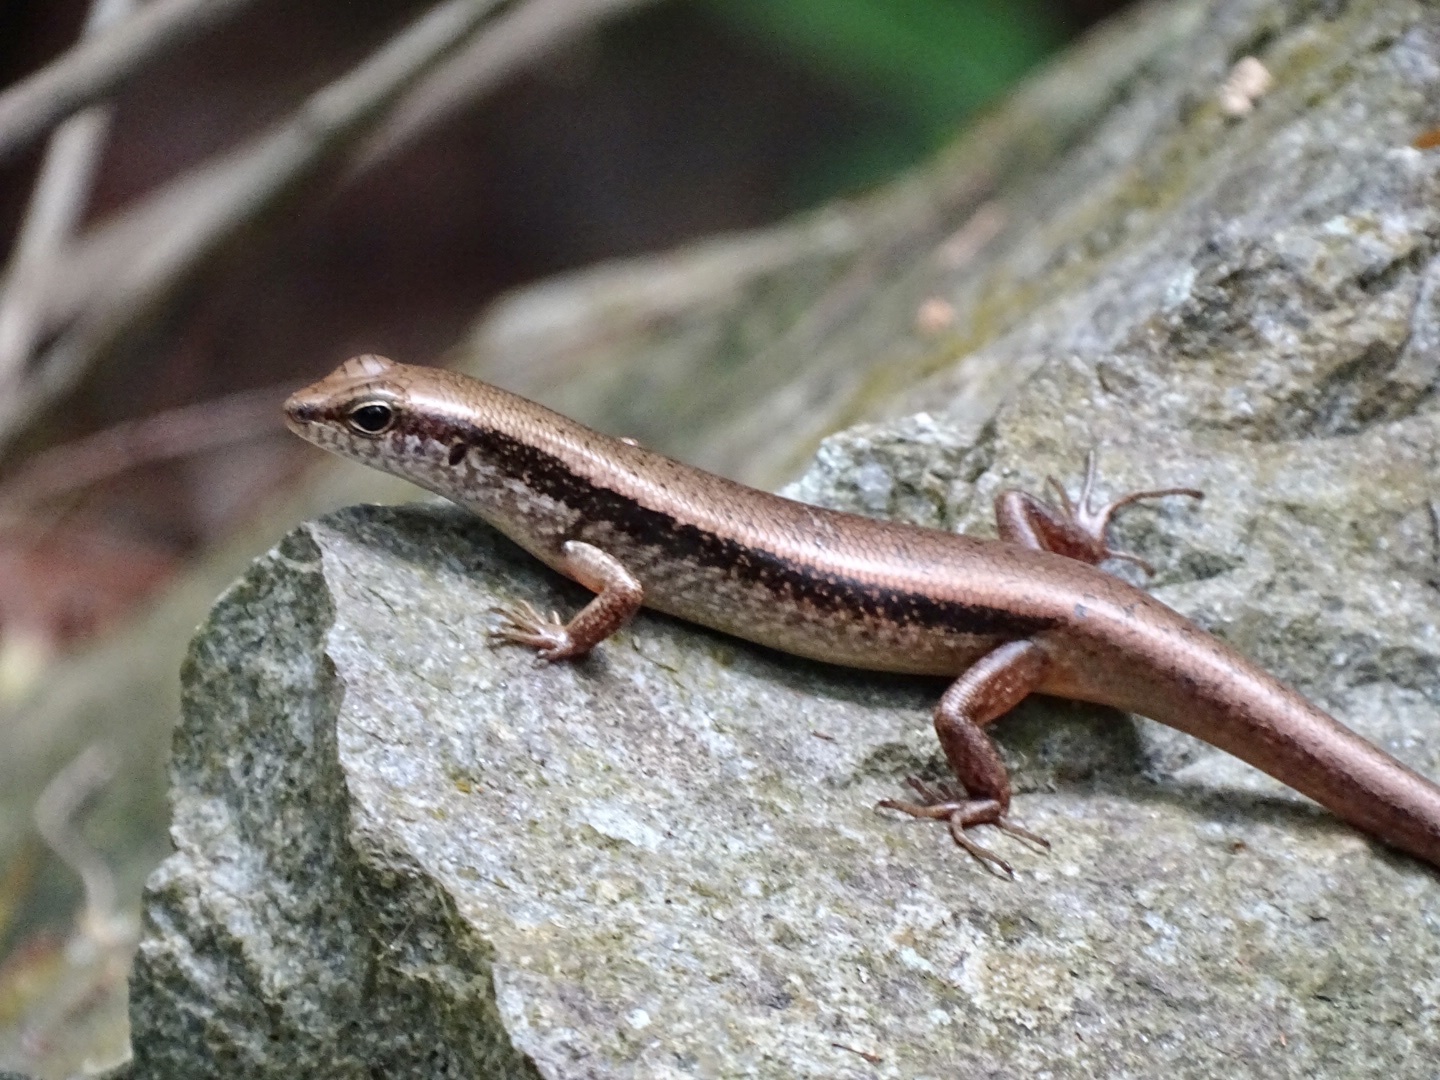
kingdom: Animalia
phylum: Chordata
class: Squamata
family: Scincidae
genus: Sphenomorphus
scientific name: Sphenomorphus indicus
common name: Himalayan forest skink
